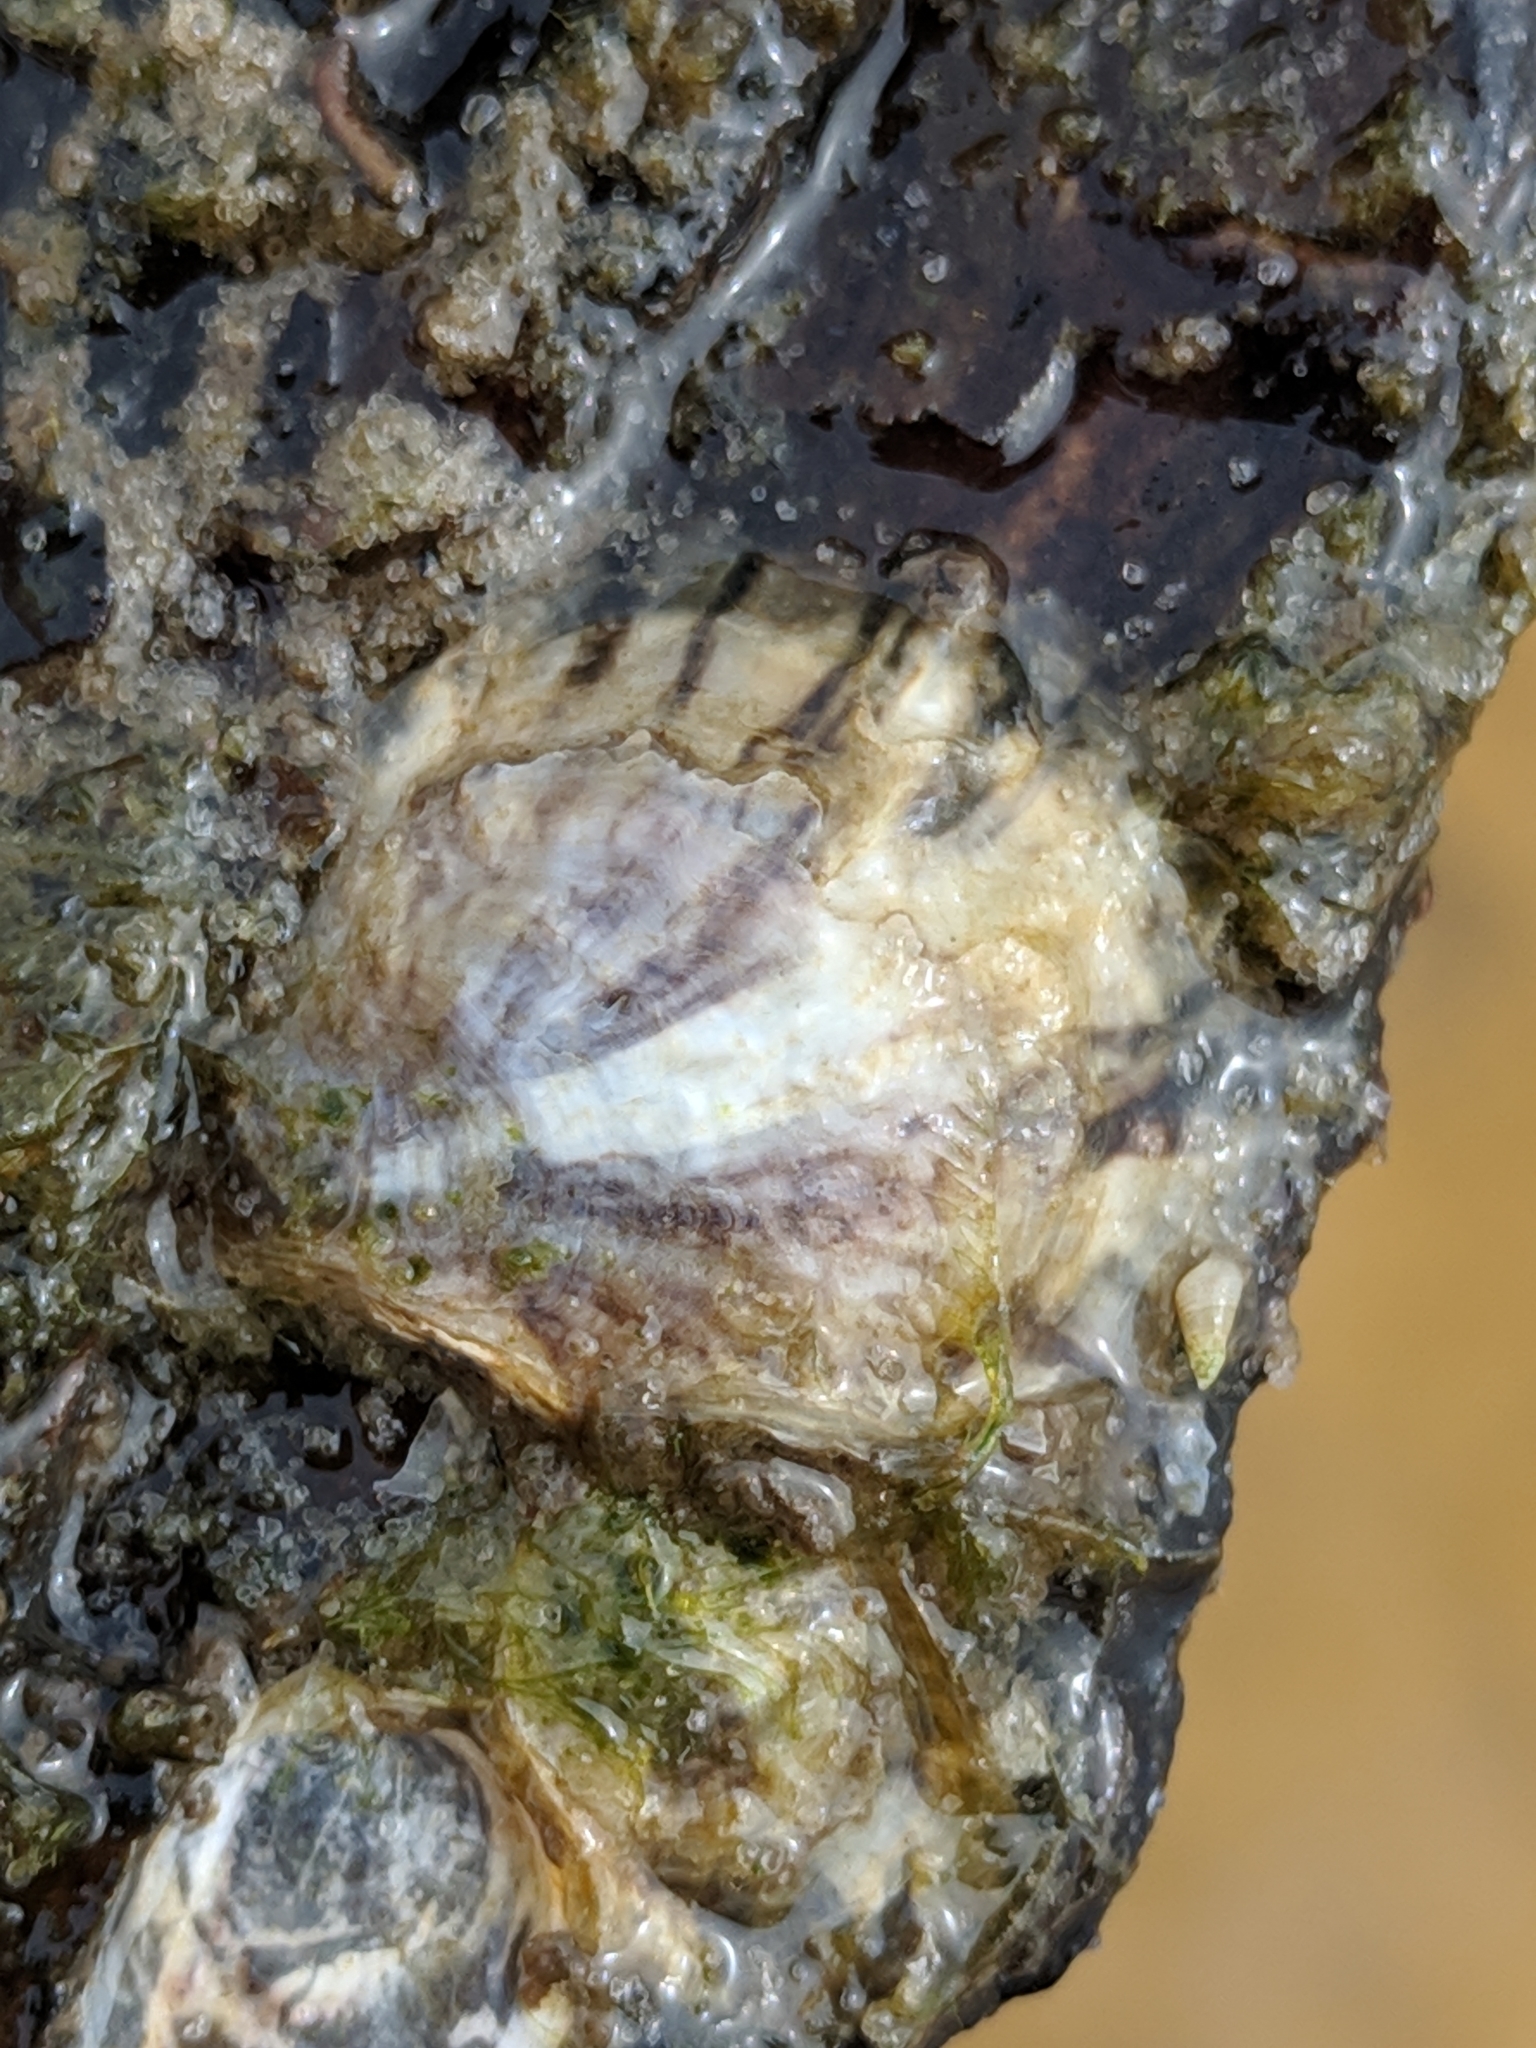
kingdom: Animalia
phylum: Mollusca
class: Bivalvia
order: Ostreida
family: Ostreidae
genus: Crassostrea
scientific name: Crassostrea virginica
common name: American oyster
